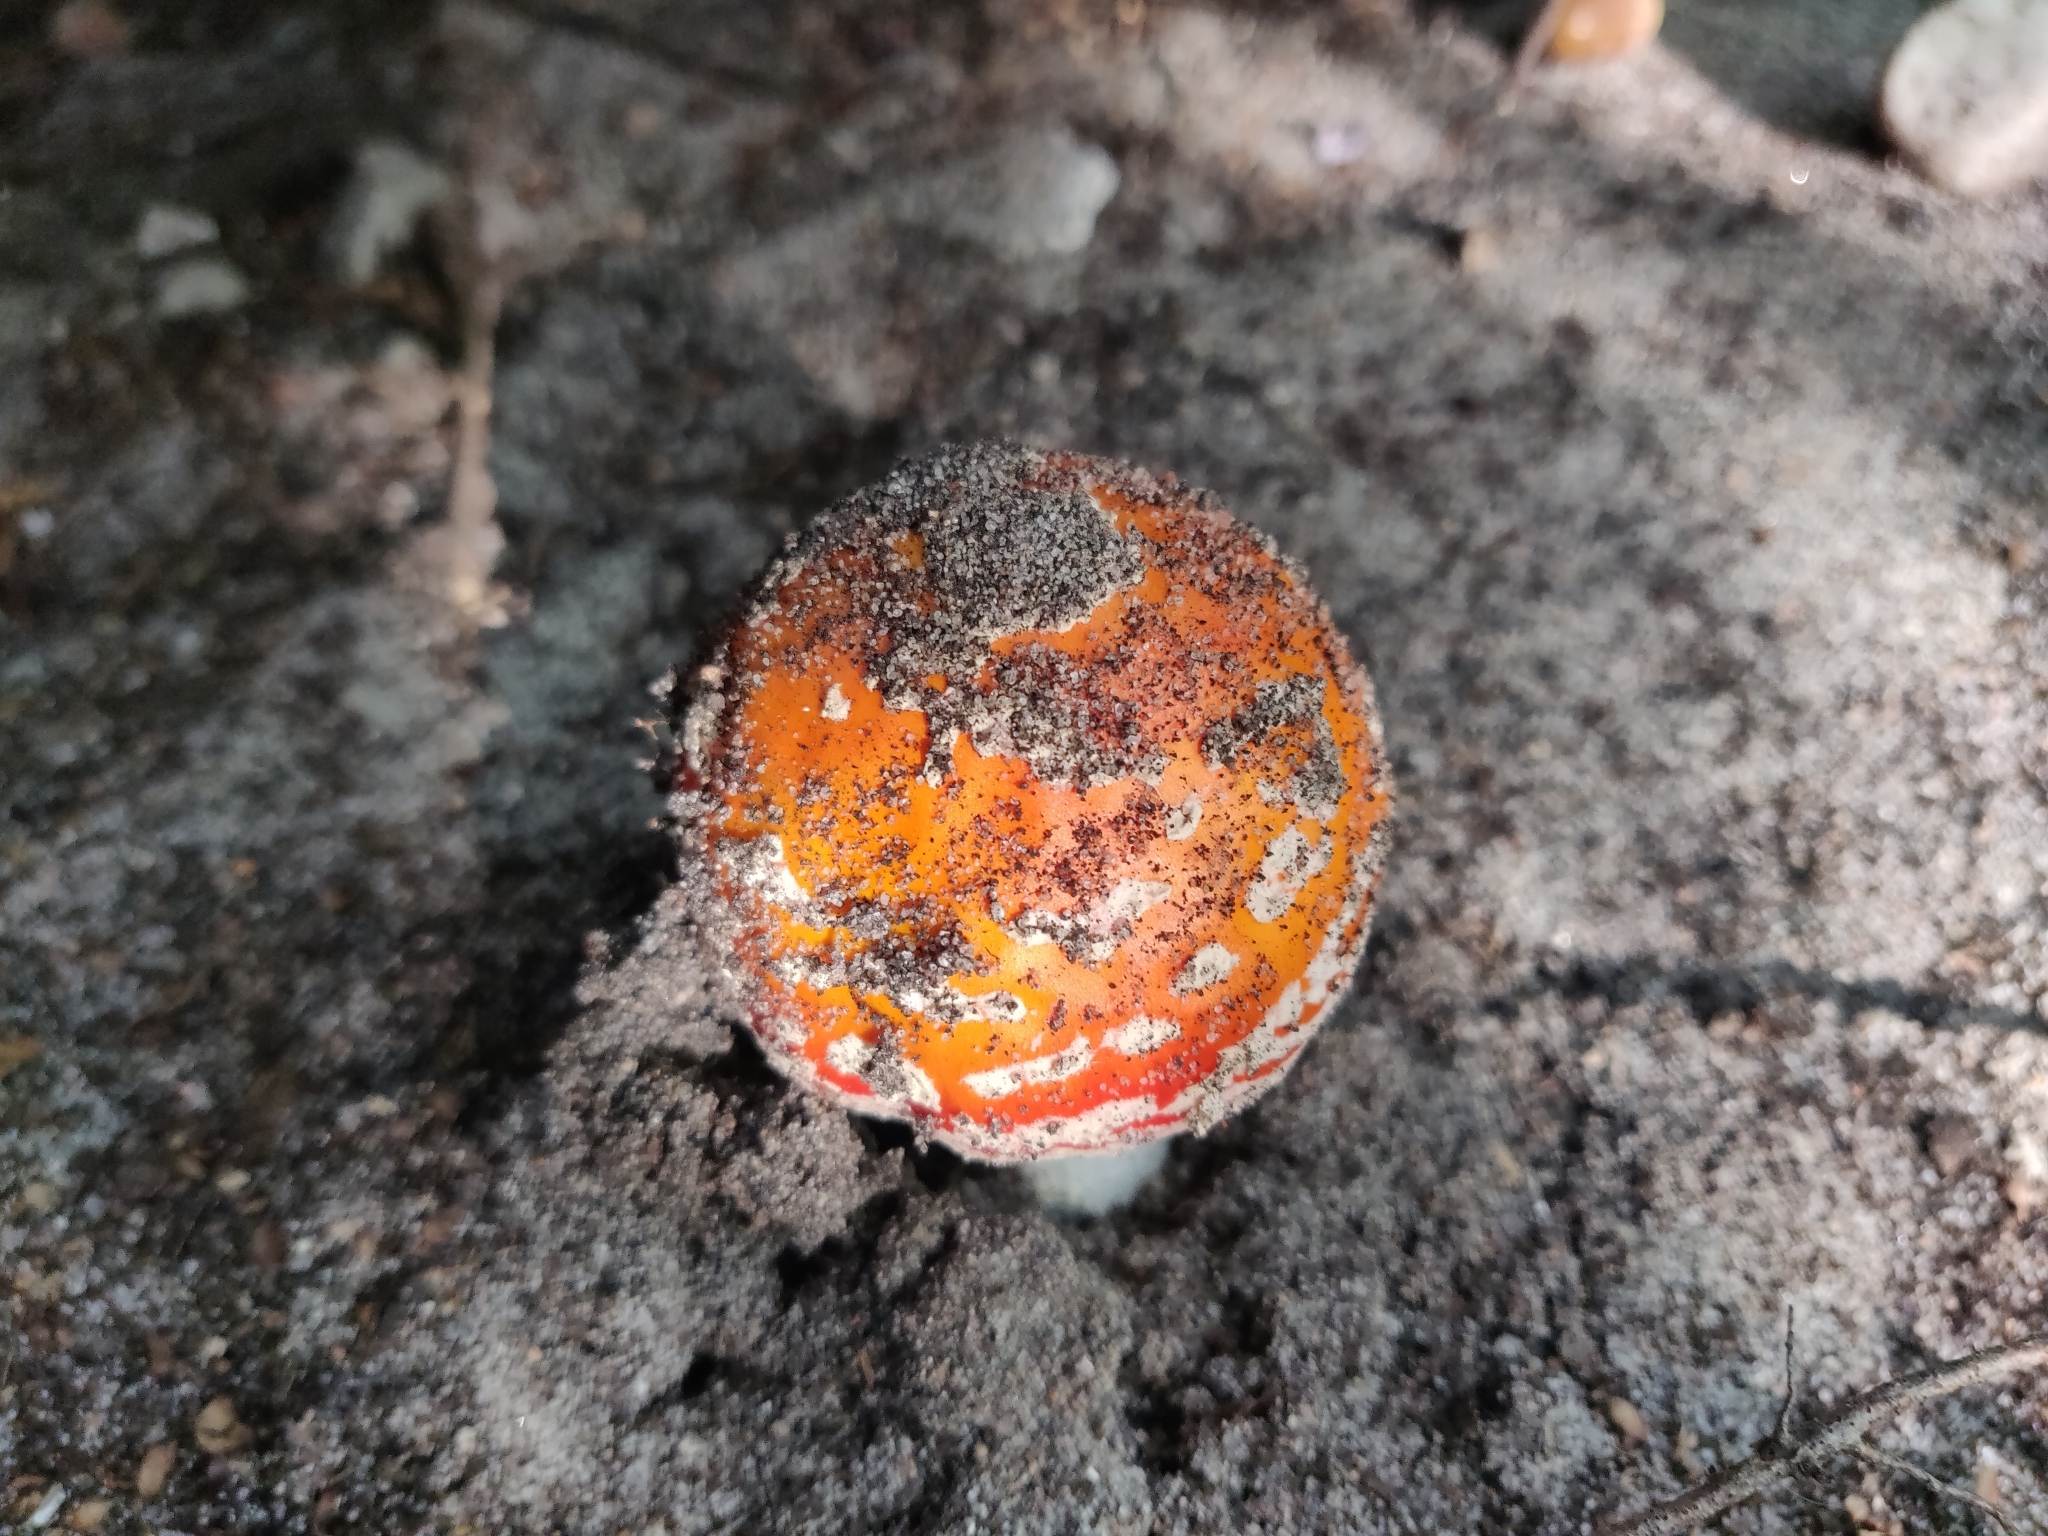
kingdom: Fungi
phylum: Basidiomycota
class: Agaricomycetes
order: Agaricales
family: Amanitaceae
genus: Amanita
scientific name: Amanita muscaria
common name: Fly agaric
